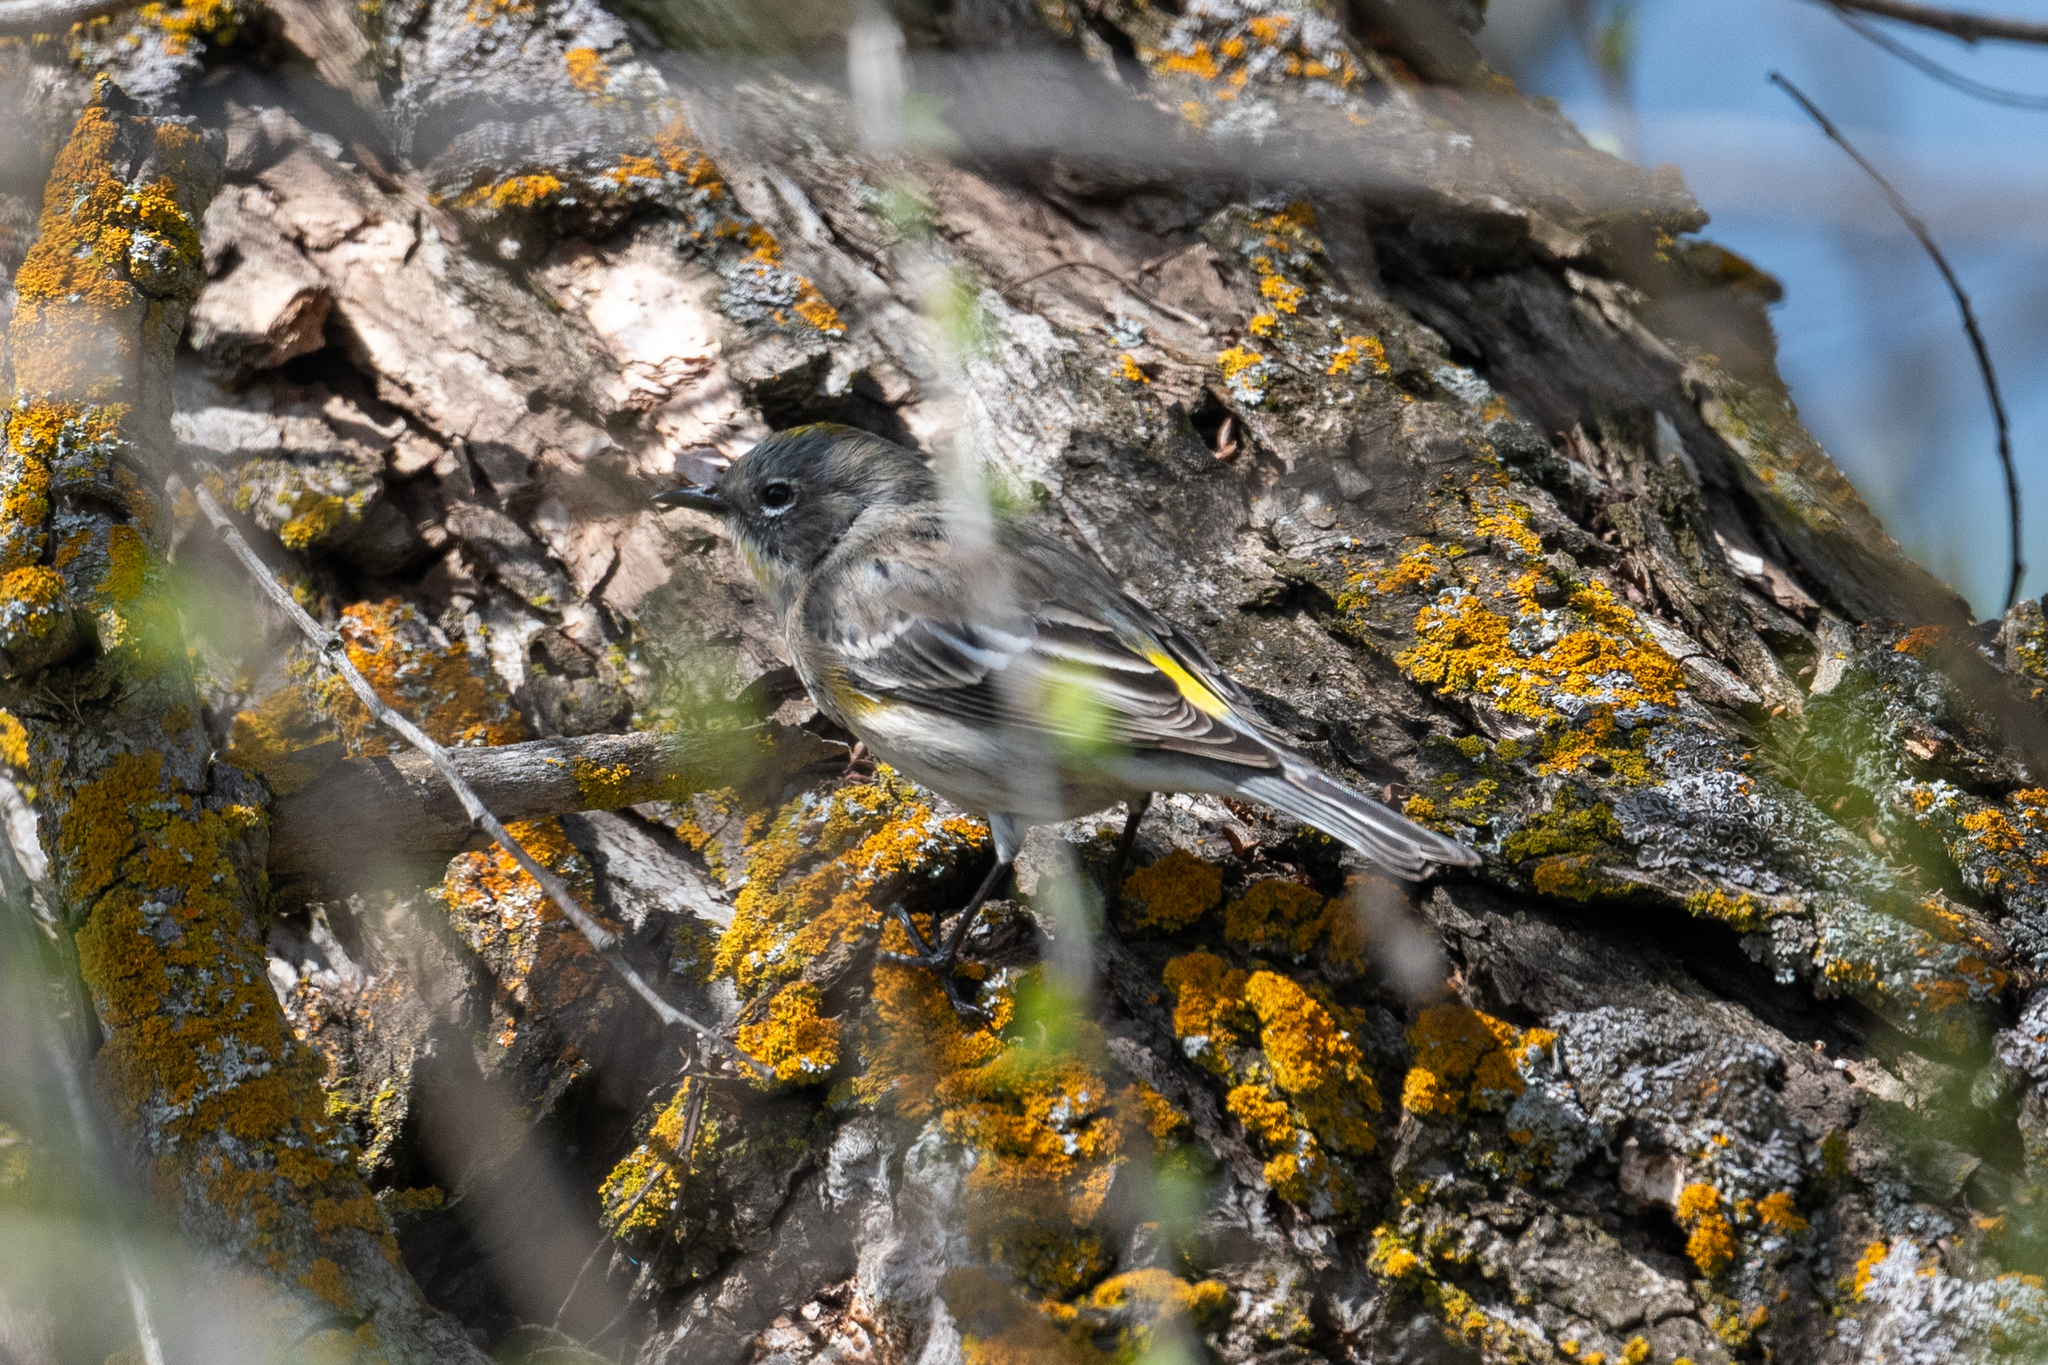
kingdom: Animalia
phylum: Chordata
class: Aves
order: Passeriformes
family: Parulidae
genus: Setophaga
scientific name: Setophaga coronata
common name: Myrtle warbler
